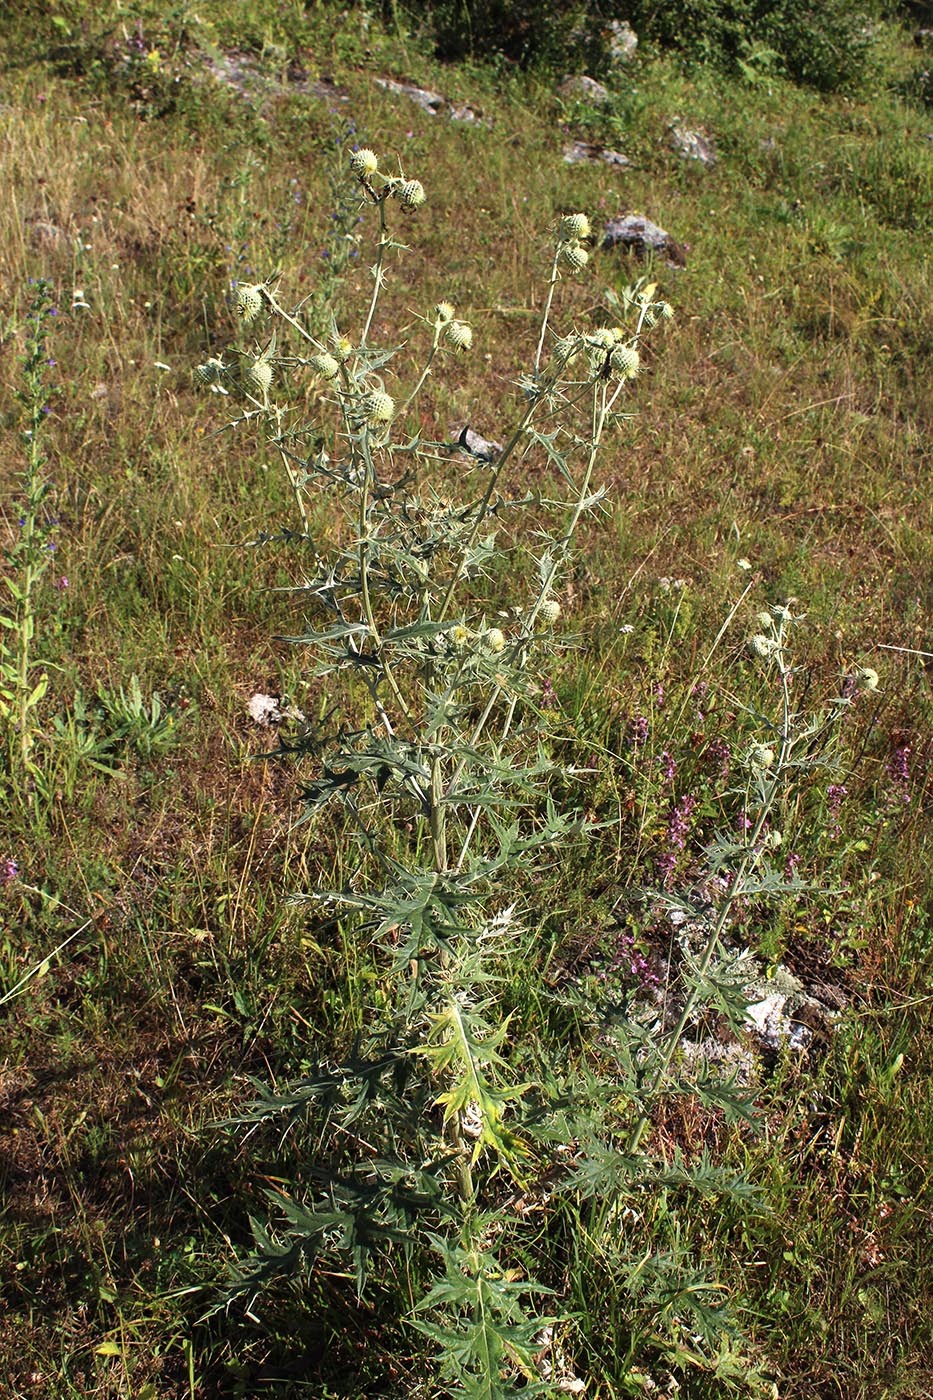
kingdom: Plantae
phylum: Tracheophyta
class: Magnoliopsida
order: Asterales
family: Asteraceae
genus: Lophiolepis
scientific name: Lophiolepis chlorocoma
